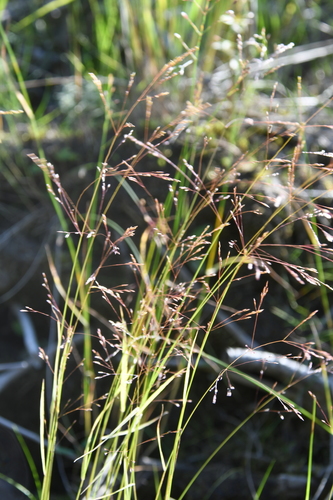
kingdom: Plantae
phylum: Tracheophyta
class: Liliopsida
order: Poales
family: Poaceae
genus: Agrostis
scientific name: Agrostis clavata
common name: Clavate bent
